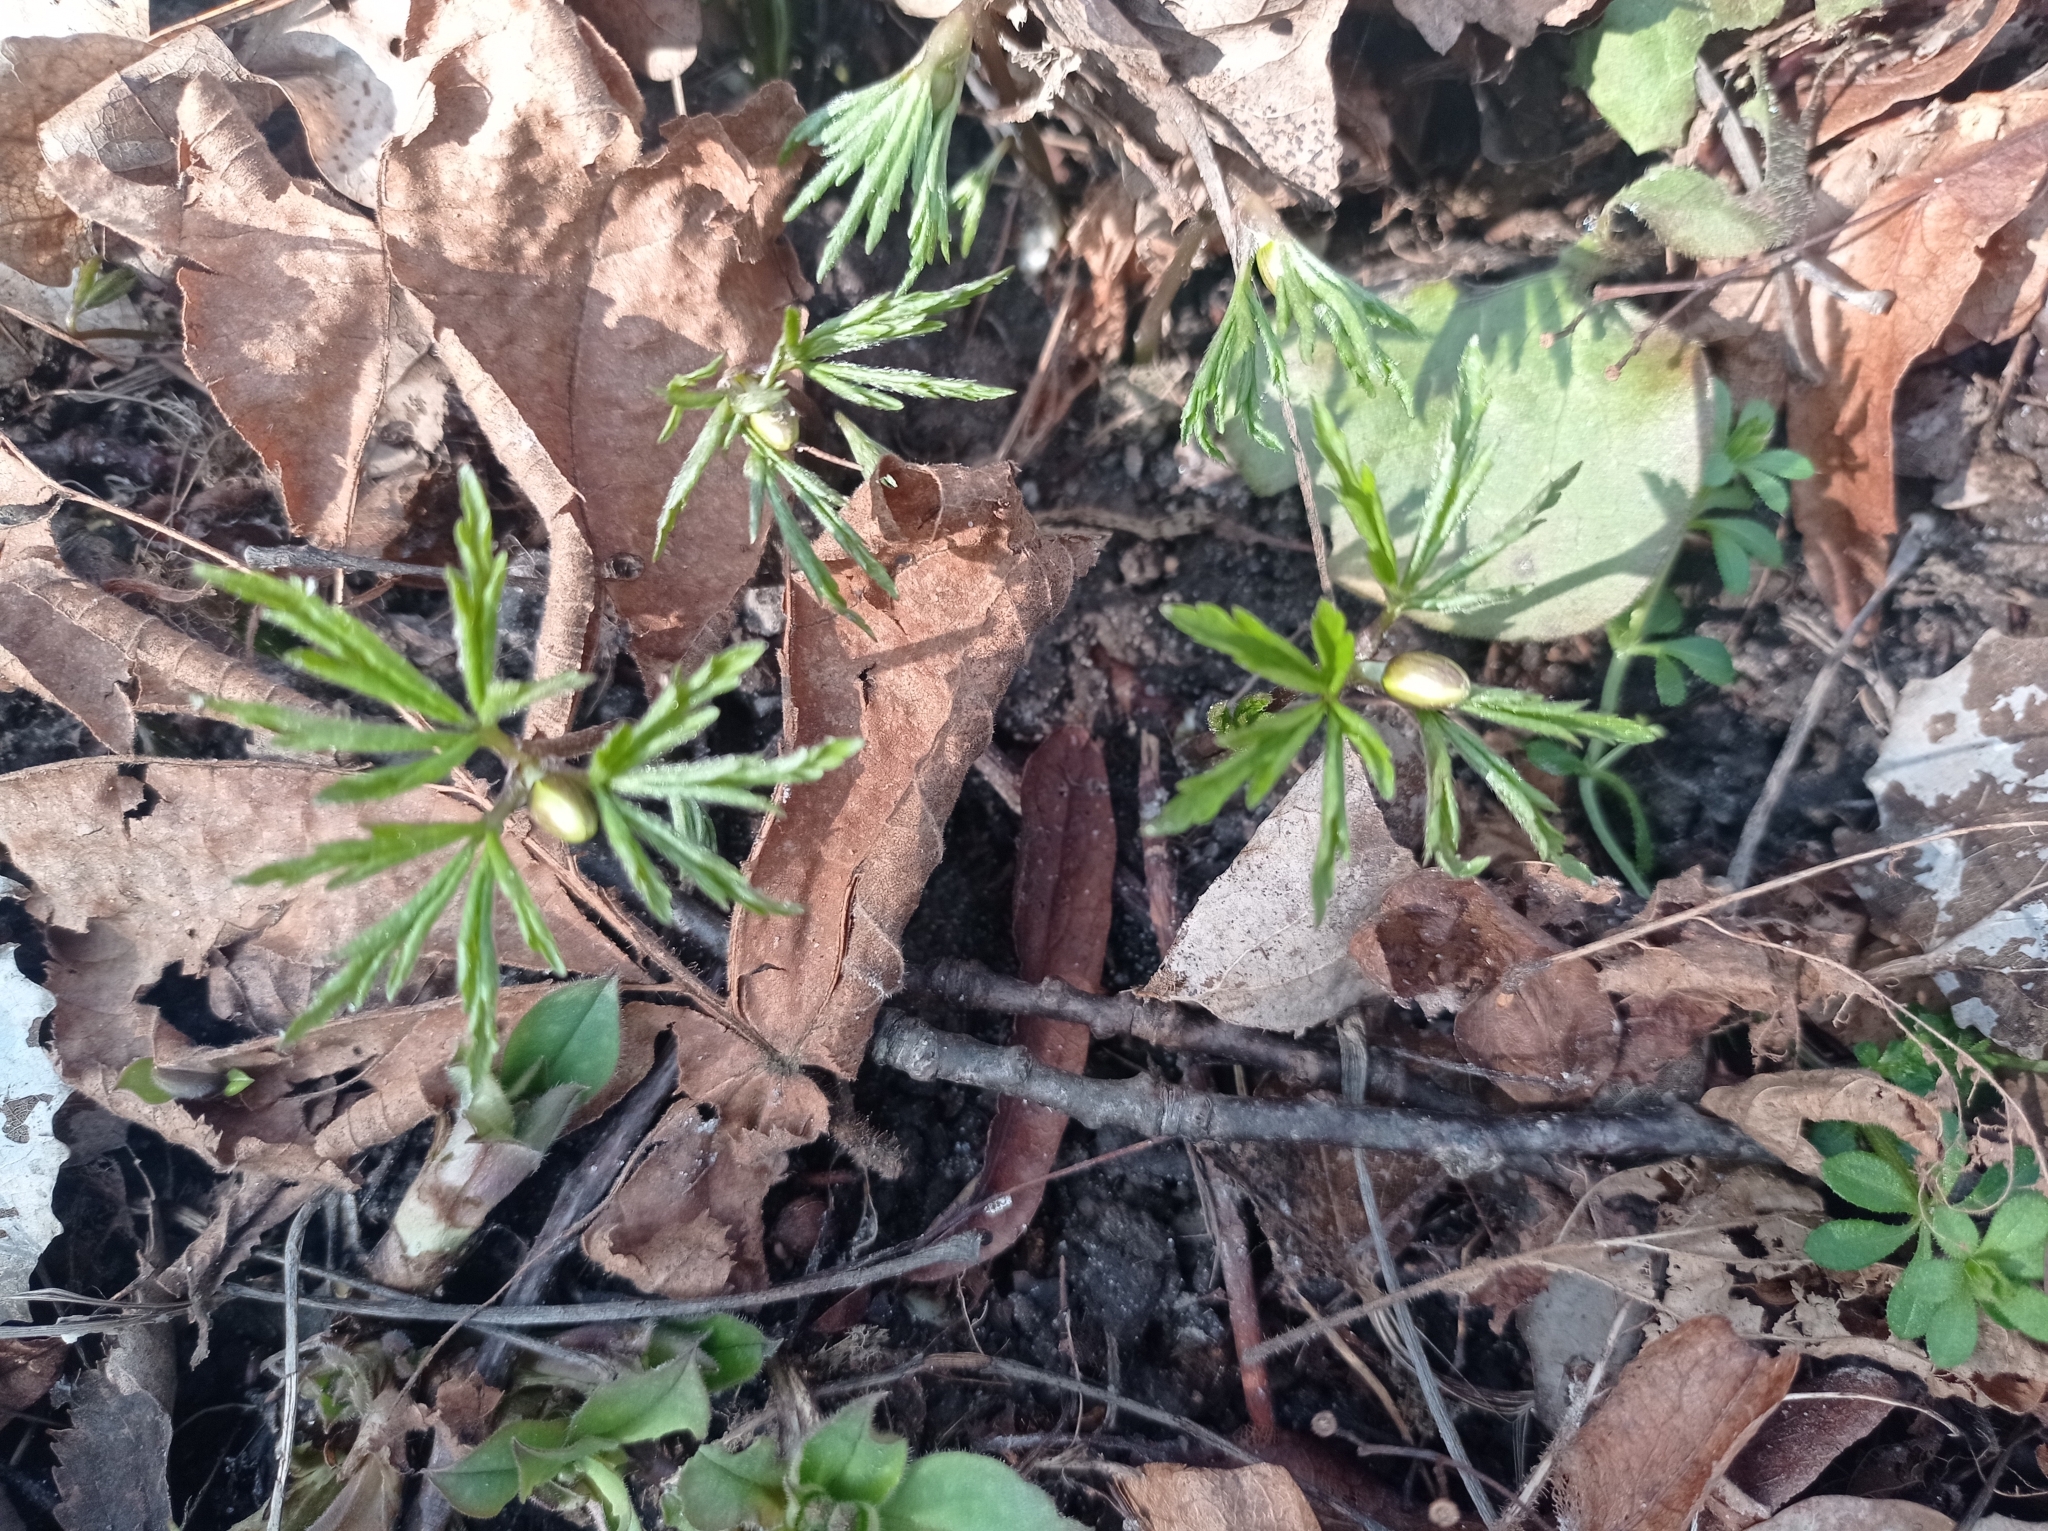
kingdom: Plantae
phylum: Tracheophyta
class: Magnoliopsida
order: Ranunculales
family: Ranunculaceae
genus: Anemone
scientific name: Anemone nemorosa
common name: Wood anemone
